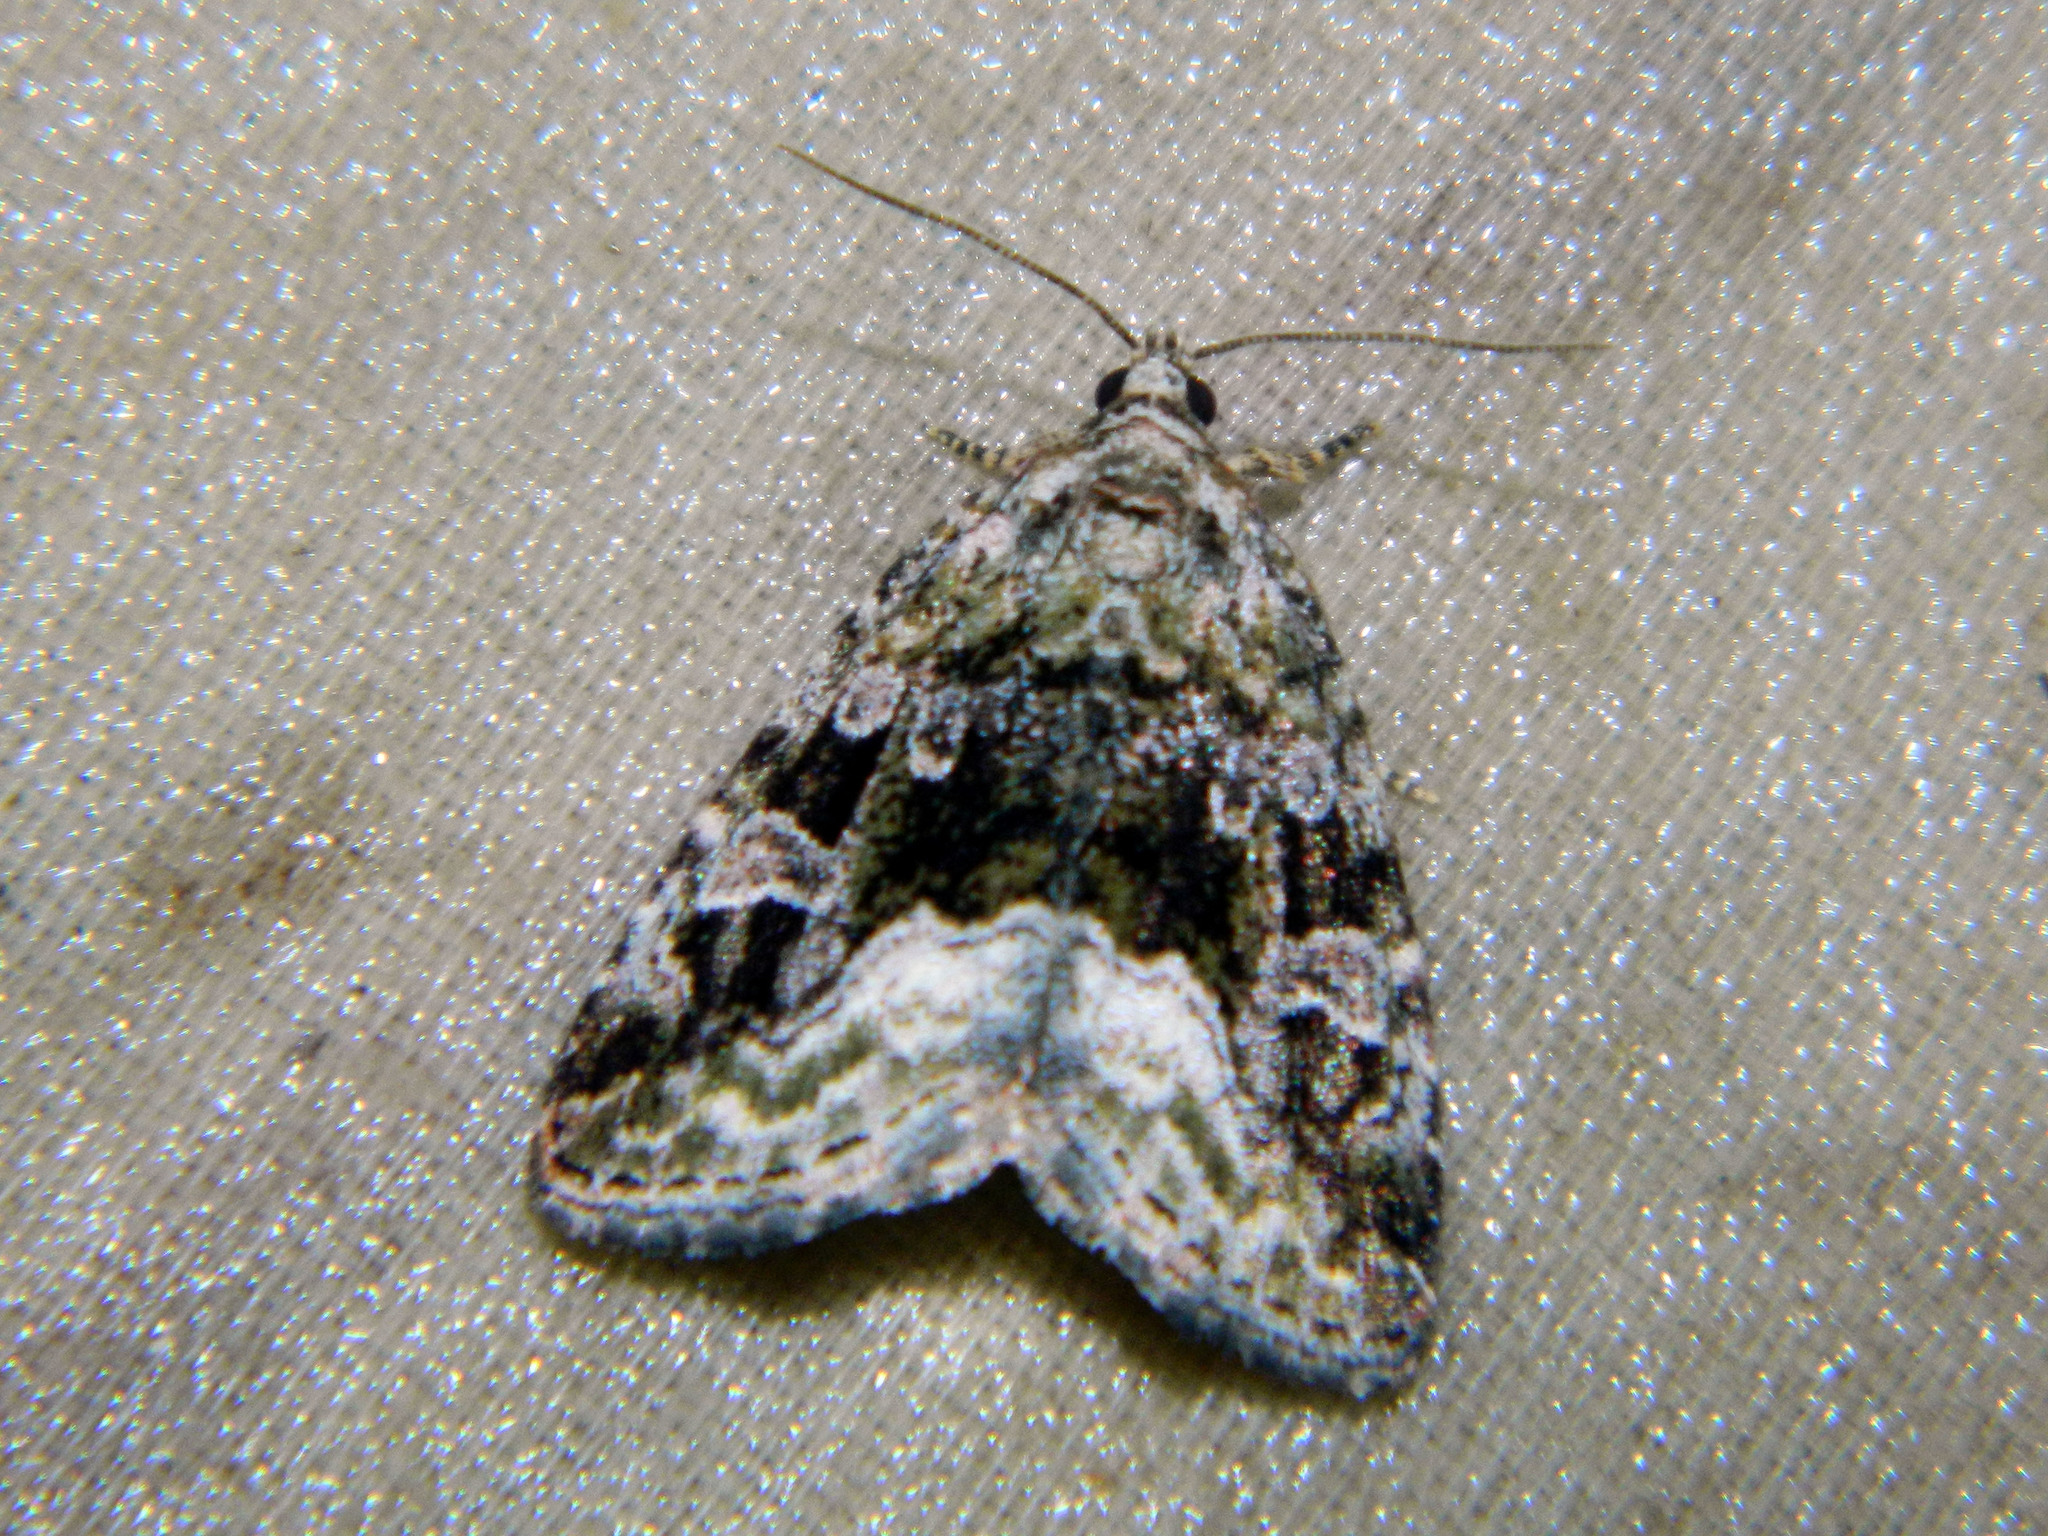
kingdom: Animalia
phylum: Arthropoda
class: Insecta
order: Lepidoptera
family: Noctuidae
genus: Protodeltote
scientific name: Protodeltote muscosula
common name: Large mossy glyph
